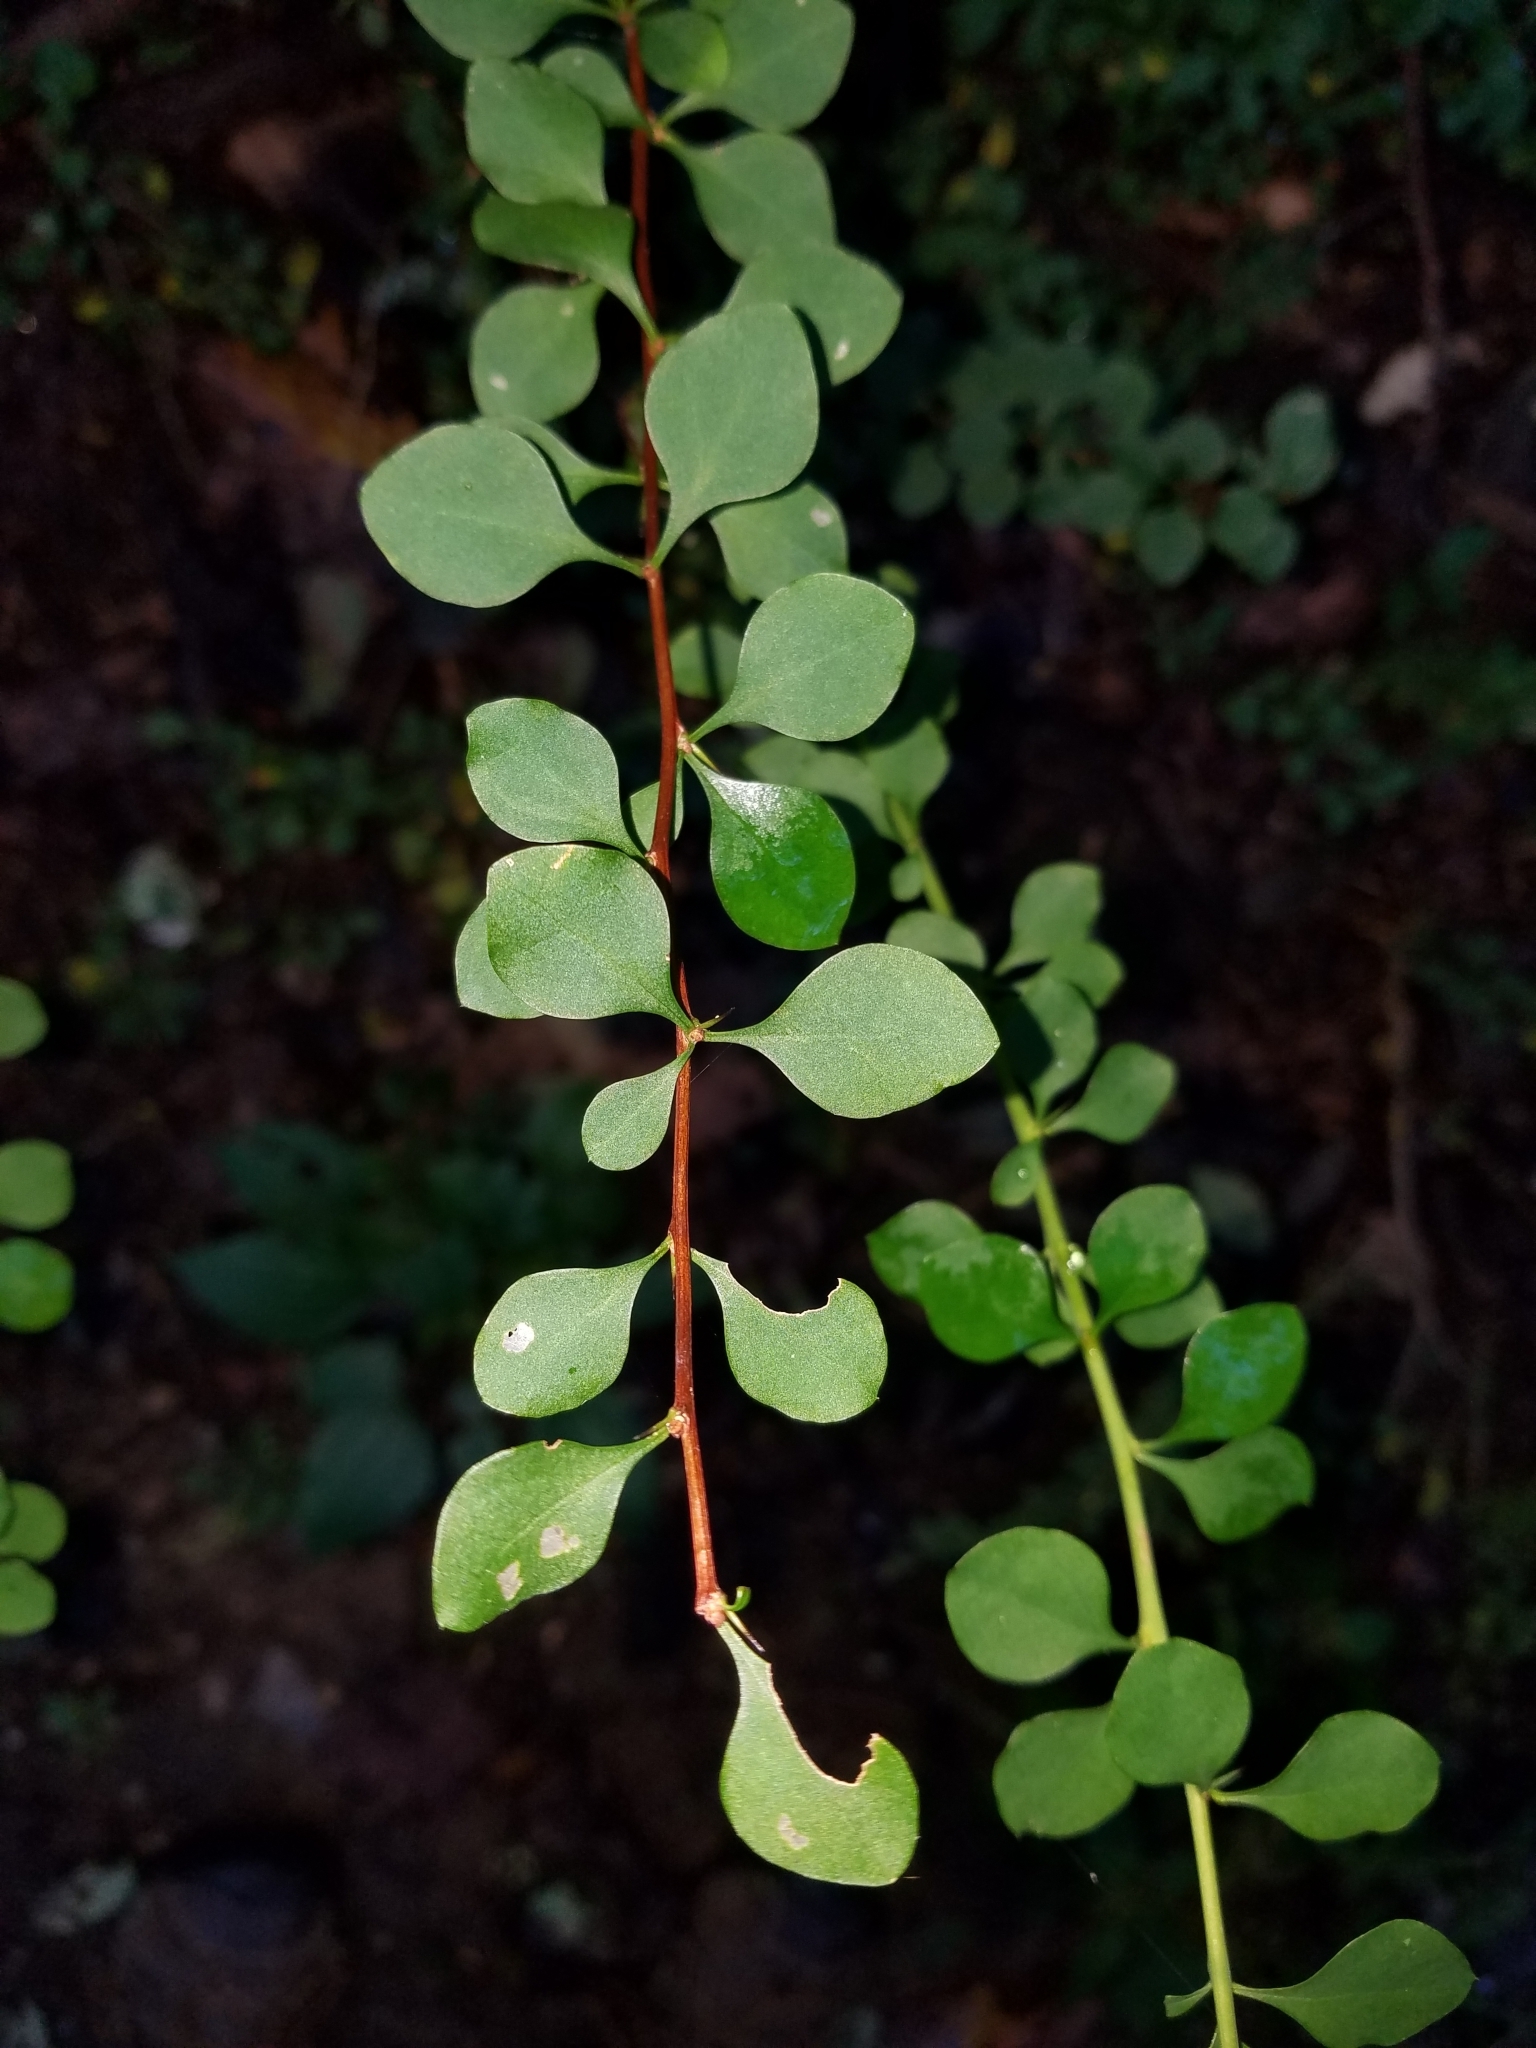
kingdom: Plantae
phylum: Tracheophyta
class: Magnoliopsida
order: Ranunculales
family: Berberidaceae
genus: Berberis
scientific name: Berberis thunbergii
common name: Japanese barberry
